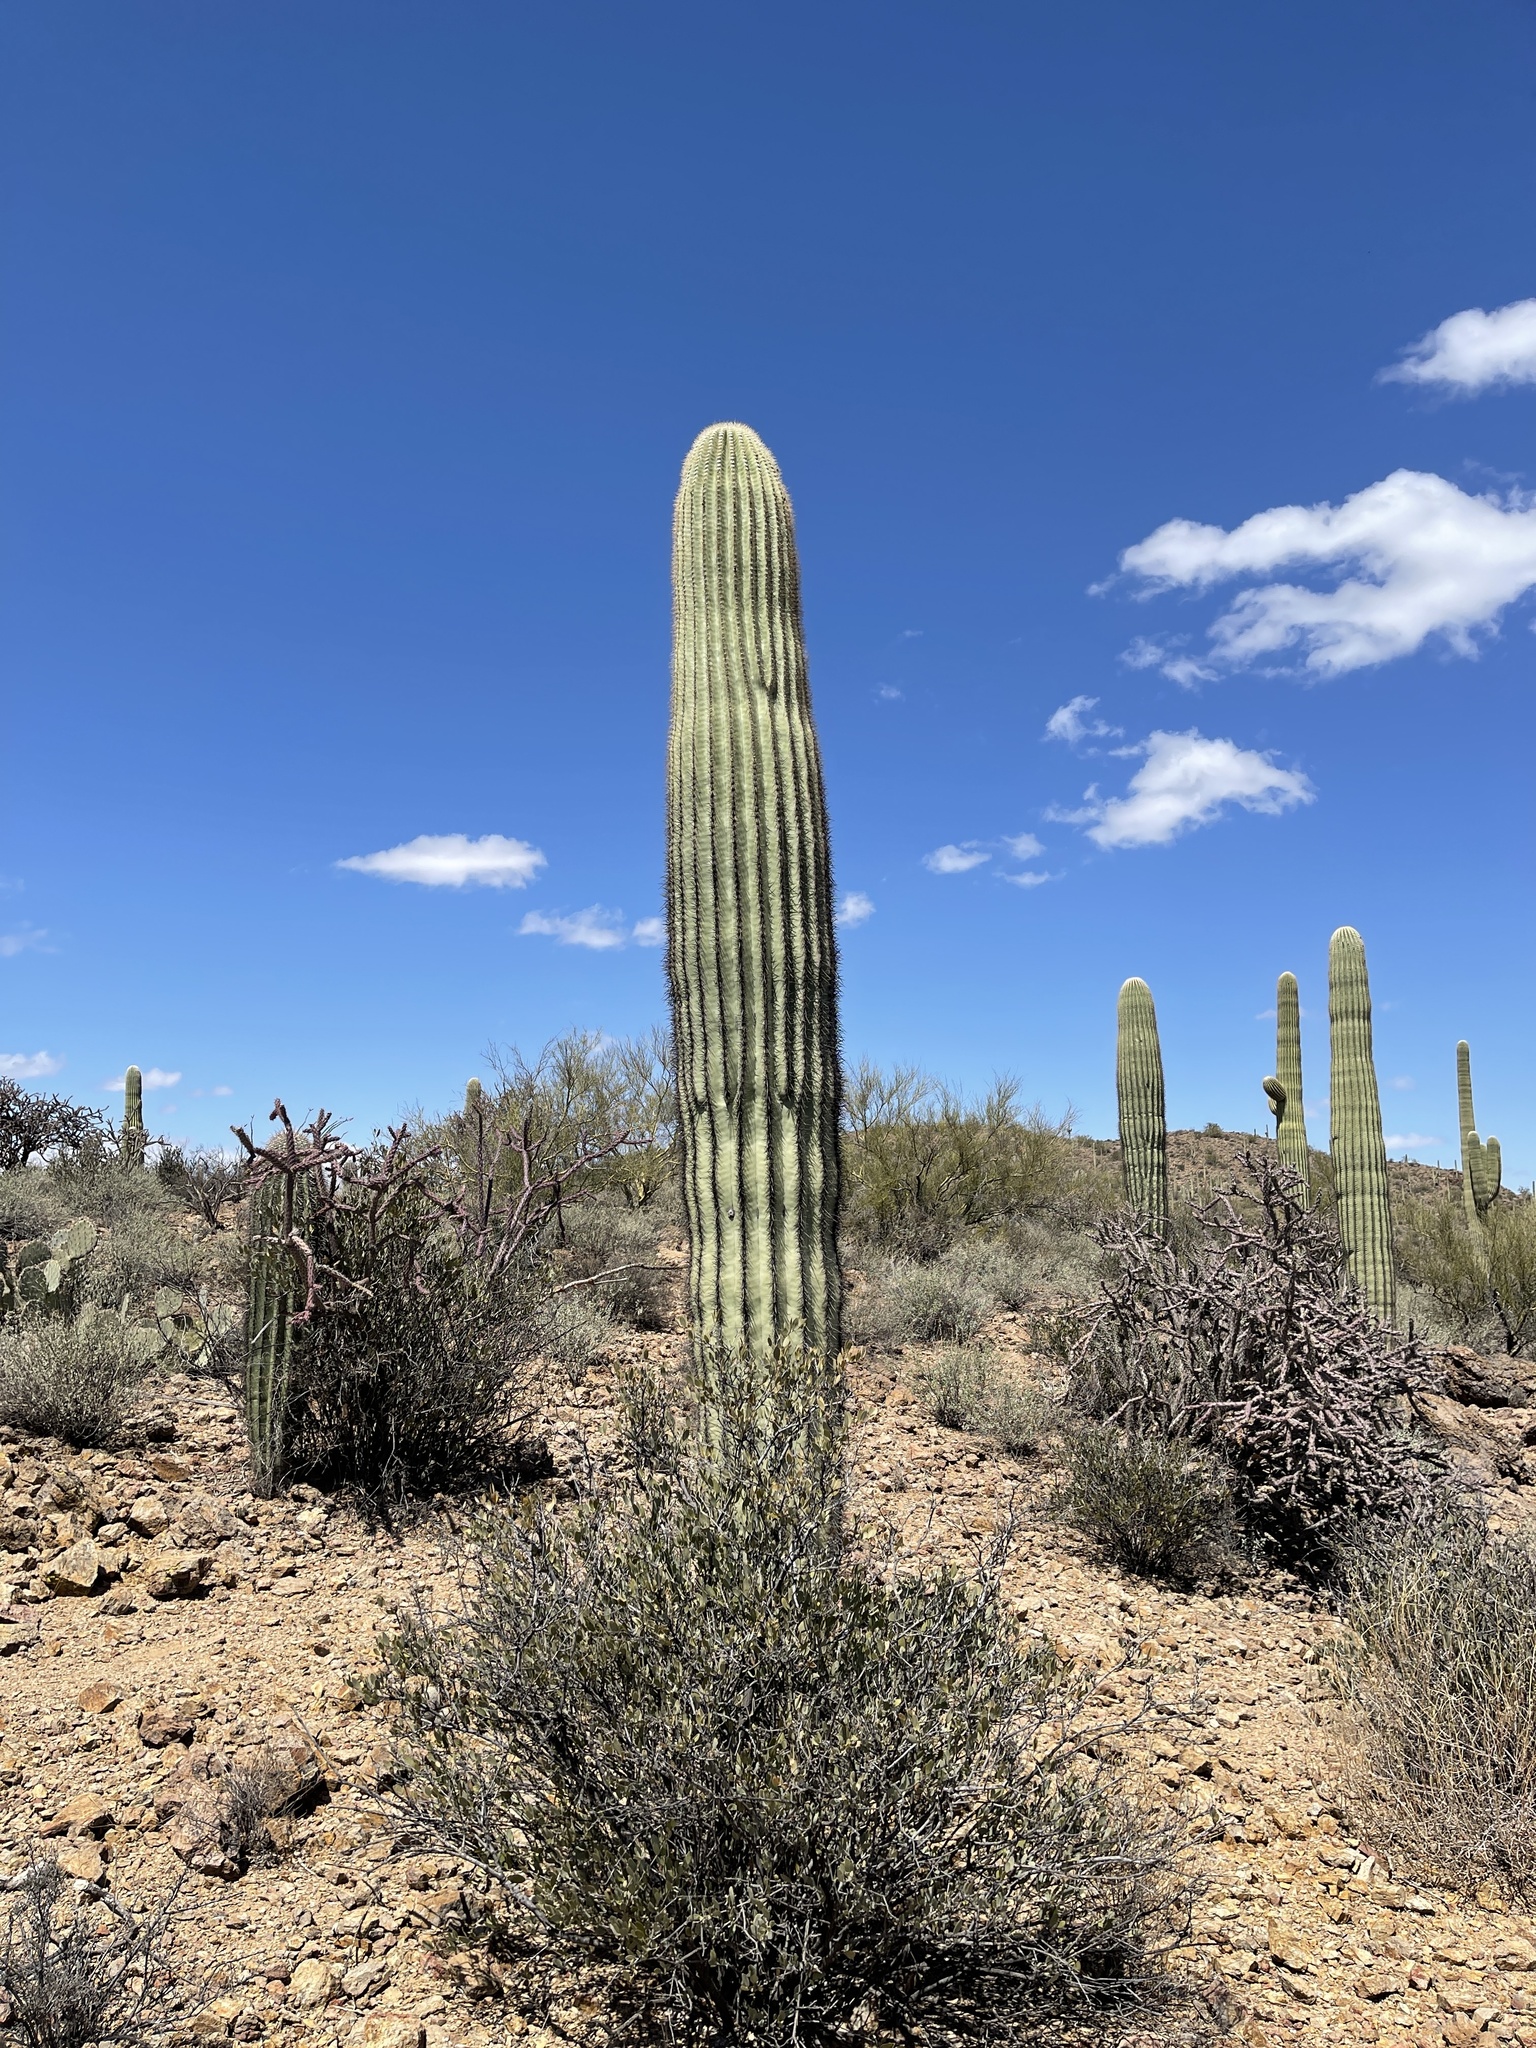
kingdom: Plantae
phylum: Tracheophyta
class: Magnoliopsida
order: Caryophyllales
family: Cactaceae
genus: Carnegiea
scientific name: Carnegiea gigantea
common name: Saguaro
